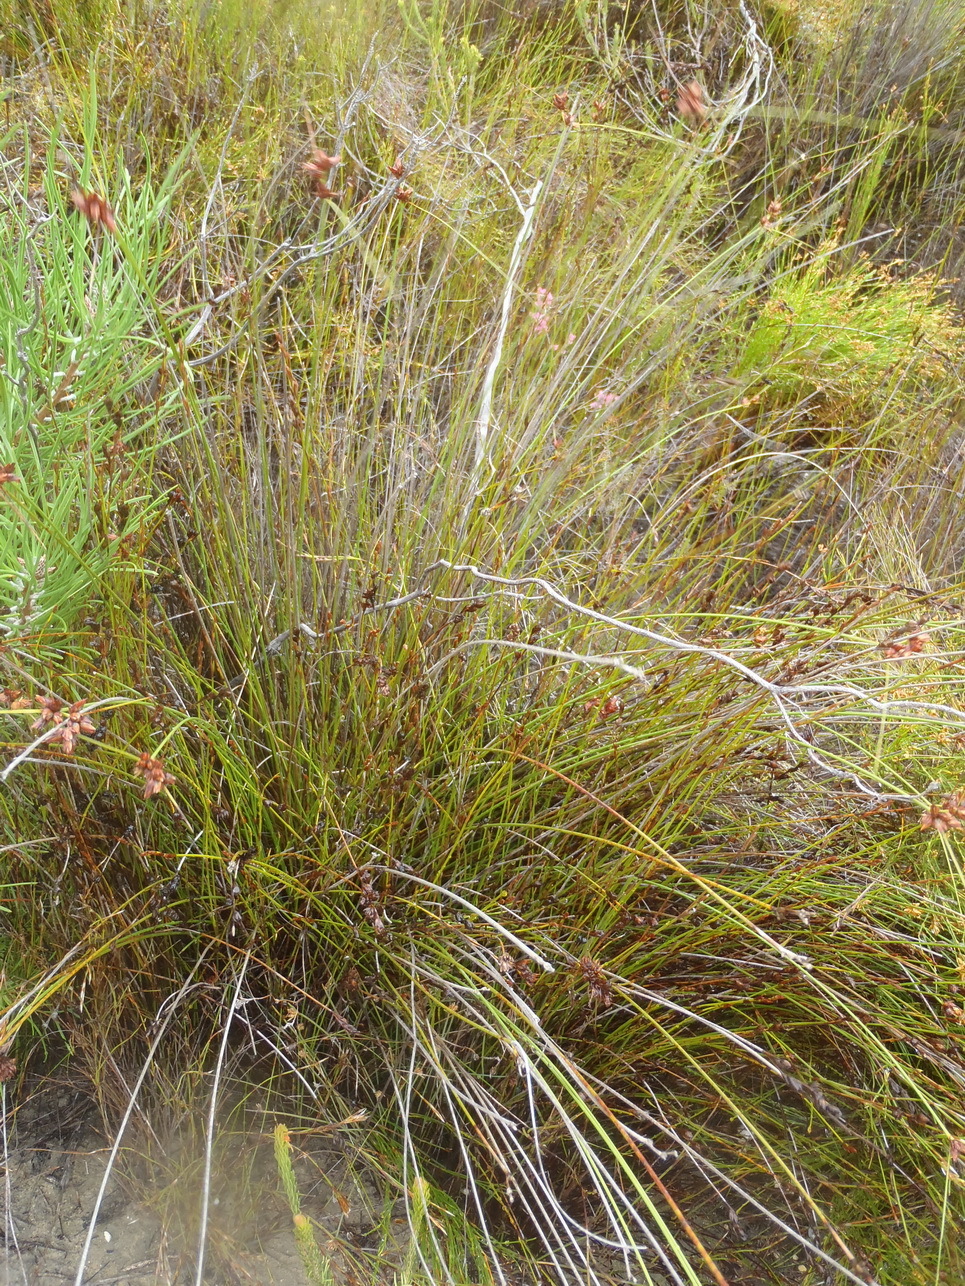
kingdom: Plantae
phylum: Tracheophyta
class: Liliopsida
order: Poales
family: Cyperaceae
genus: Schoenus
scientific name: Schoenus compar
